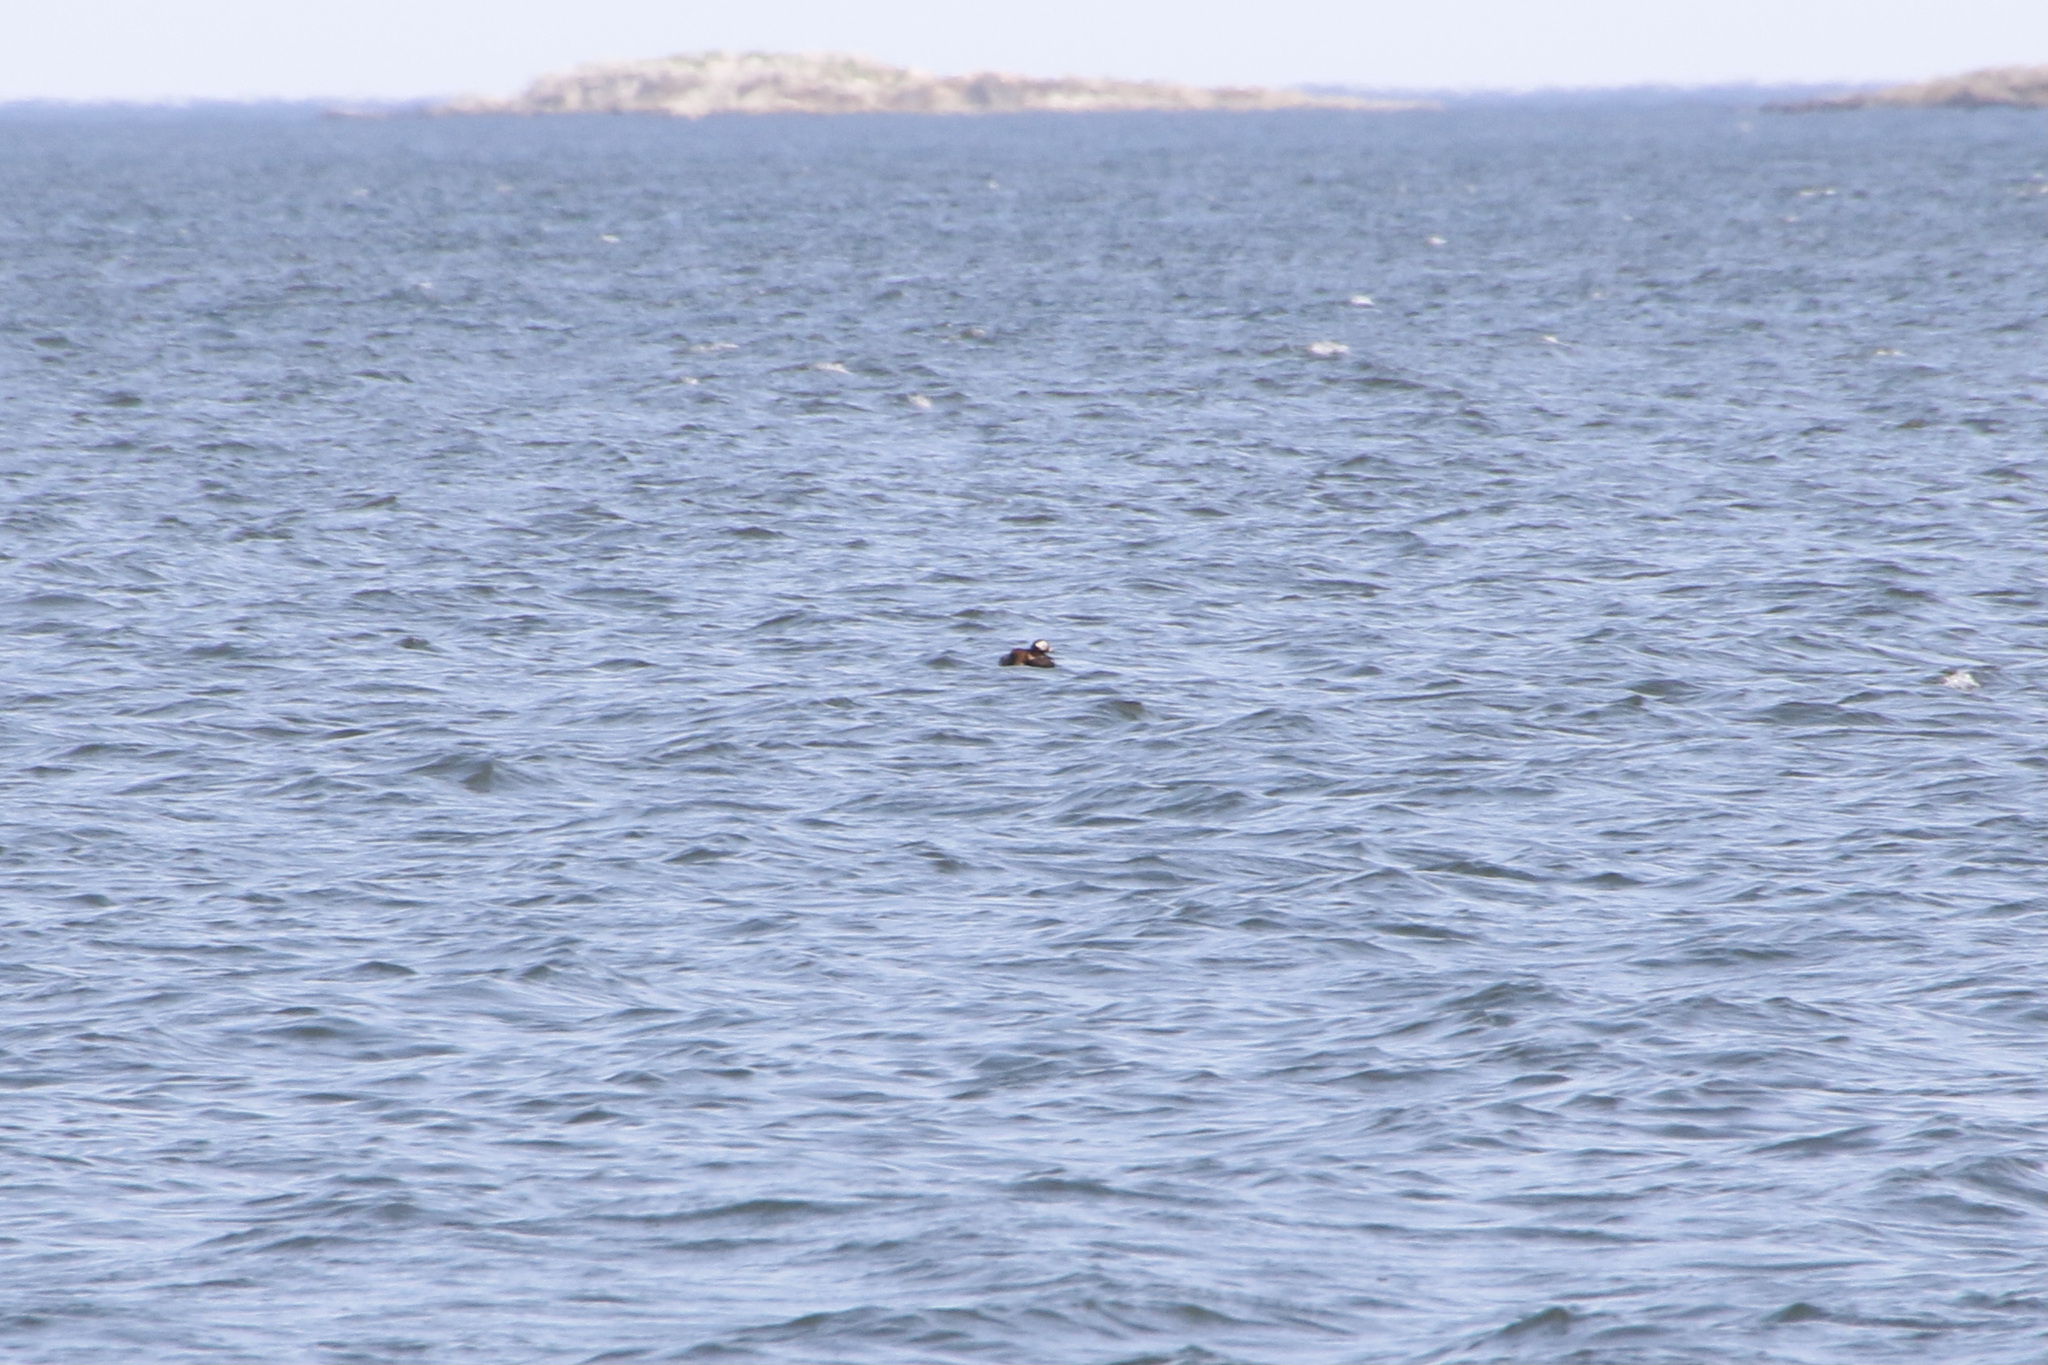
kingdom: Animalia
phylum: Chordata
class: Aves
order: Anseriformes
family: Anatidae
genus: Clangula
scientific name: Clangula hyemalis
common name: Long-tailed duck
